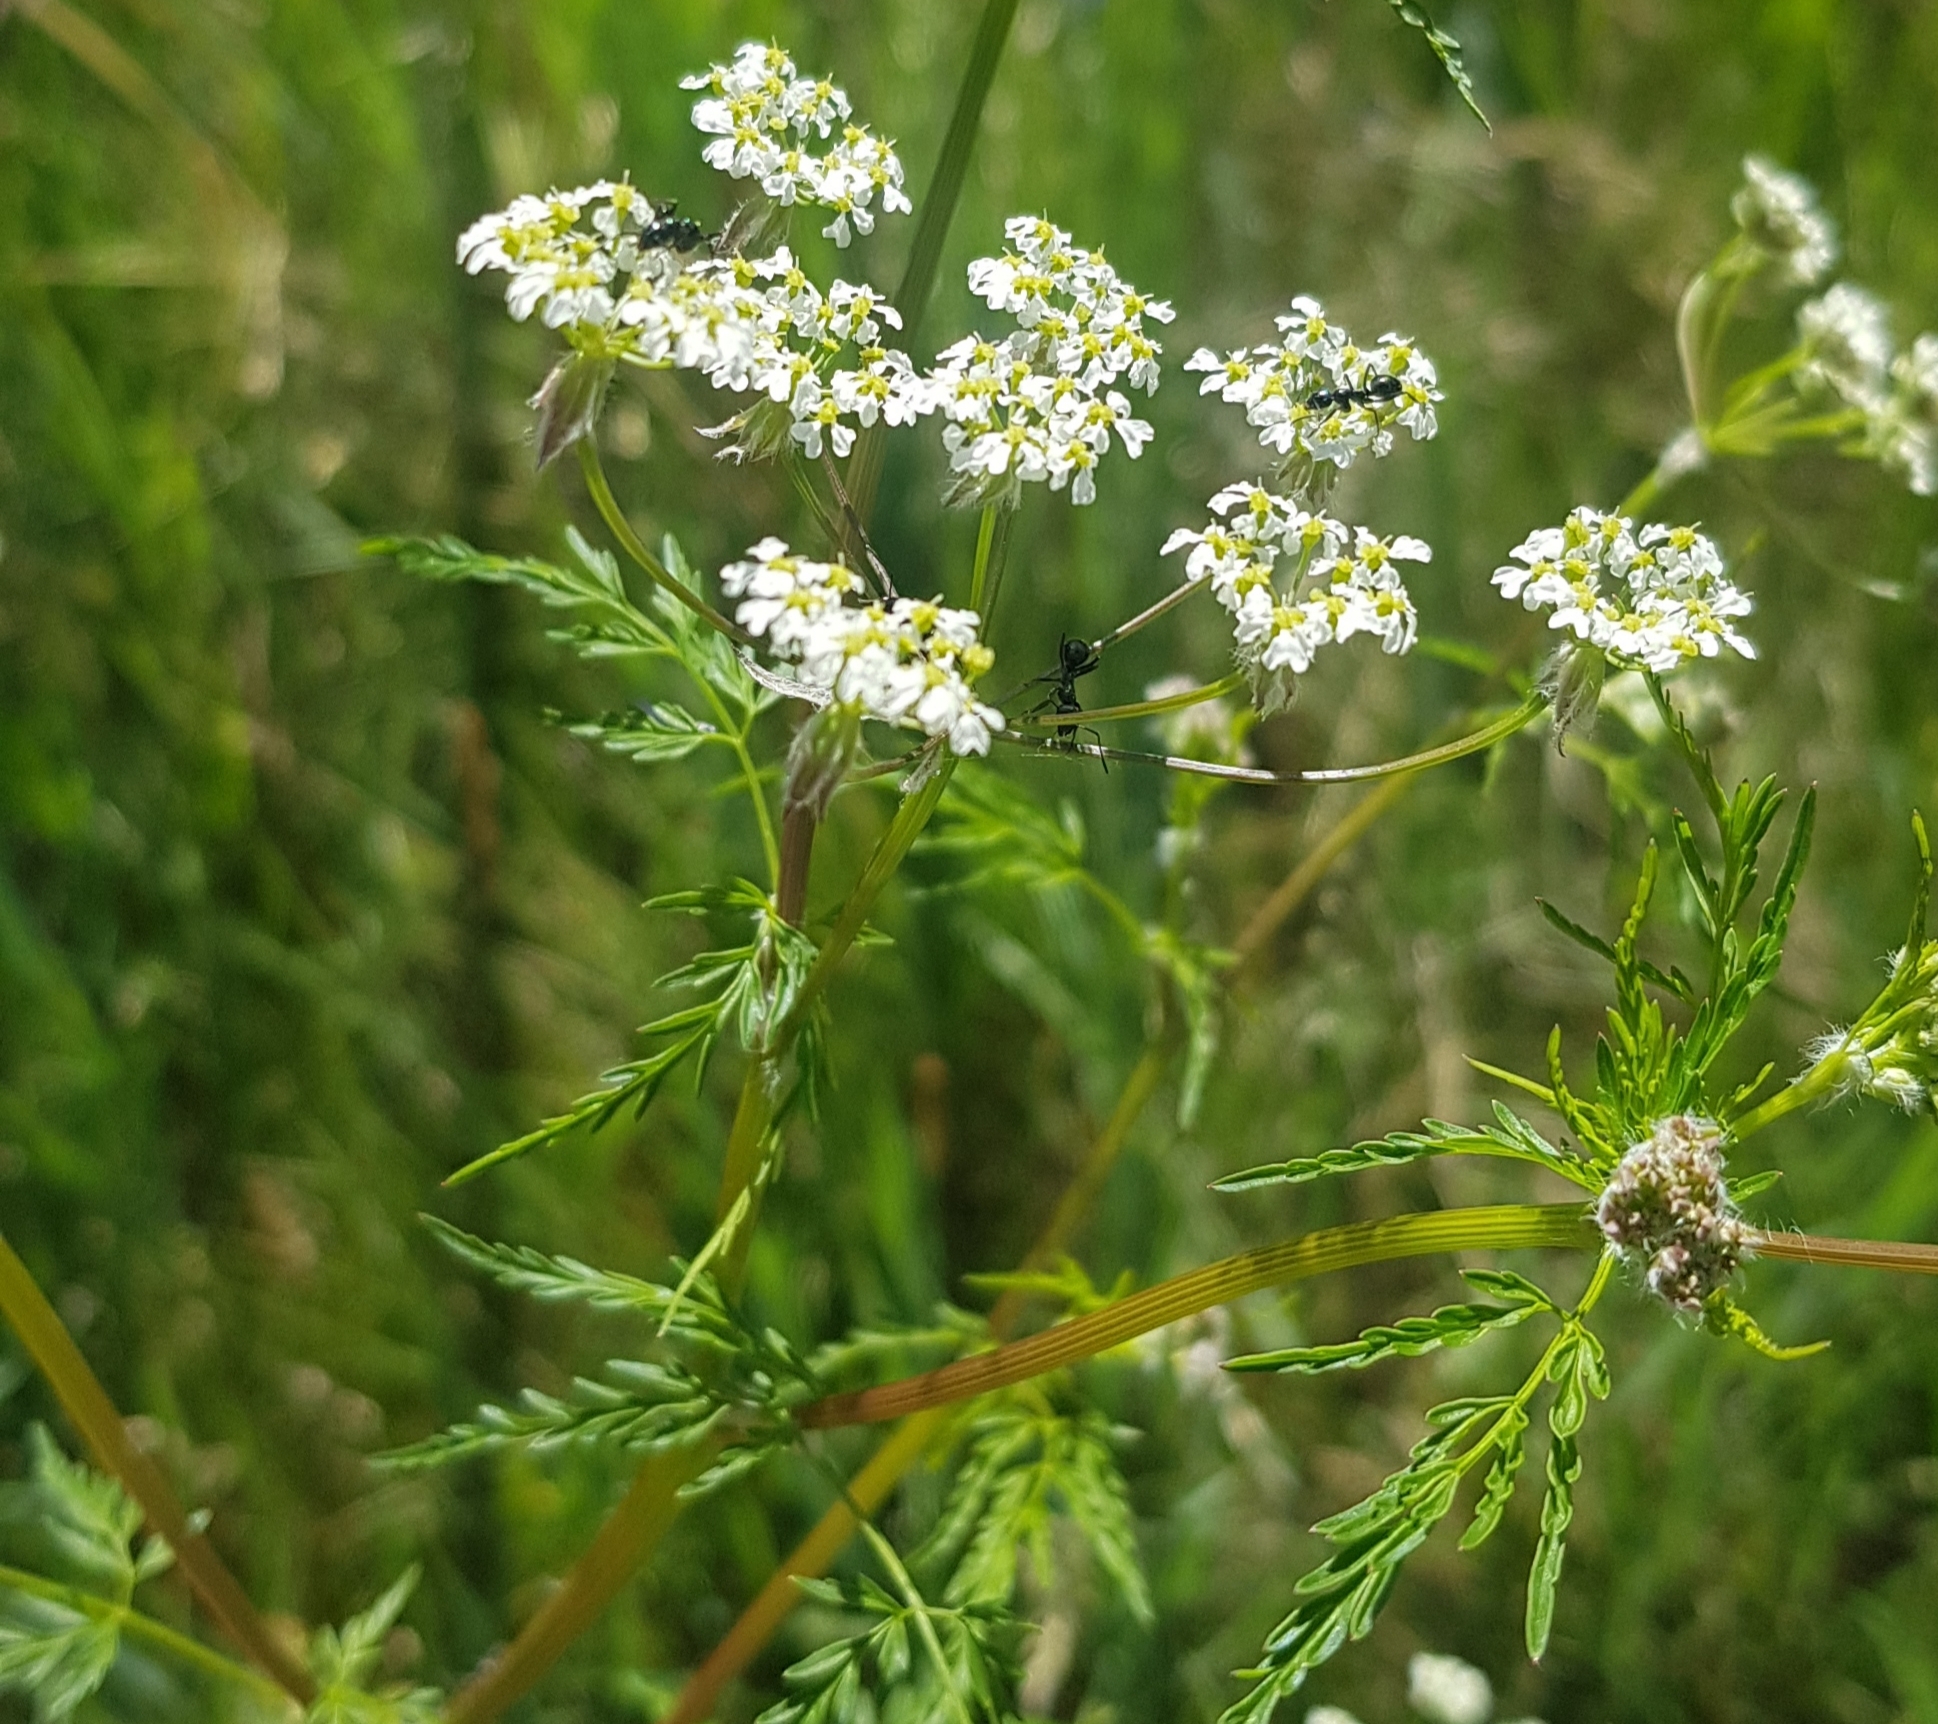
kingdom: Plantae
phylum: Tracheophyta
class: Magnoliopsida
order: Apiales
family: Apiaceae
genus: Sphallerocarpus
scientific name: Sphallerocarpus gracilis
